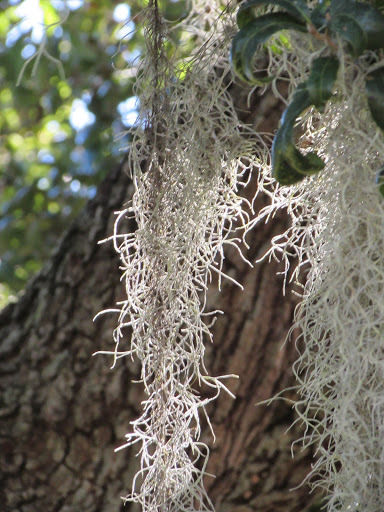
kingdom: Plantae
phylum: Tracheophyta
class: Liliopsida
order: Poales
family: Bromeliaceae
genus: Tillandsia
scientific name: Tillandsia usneoides
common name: Spanish moss
